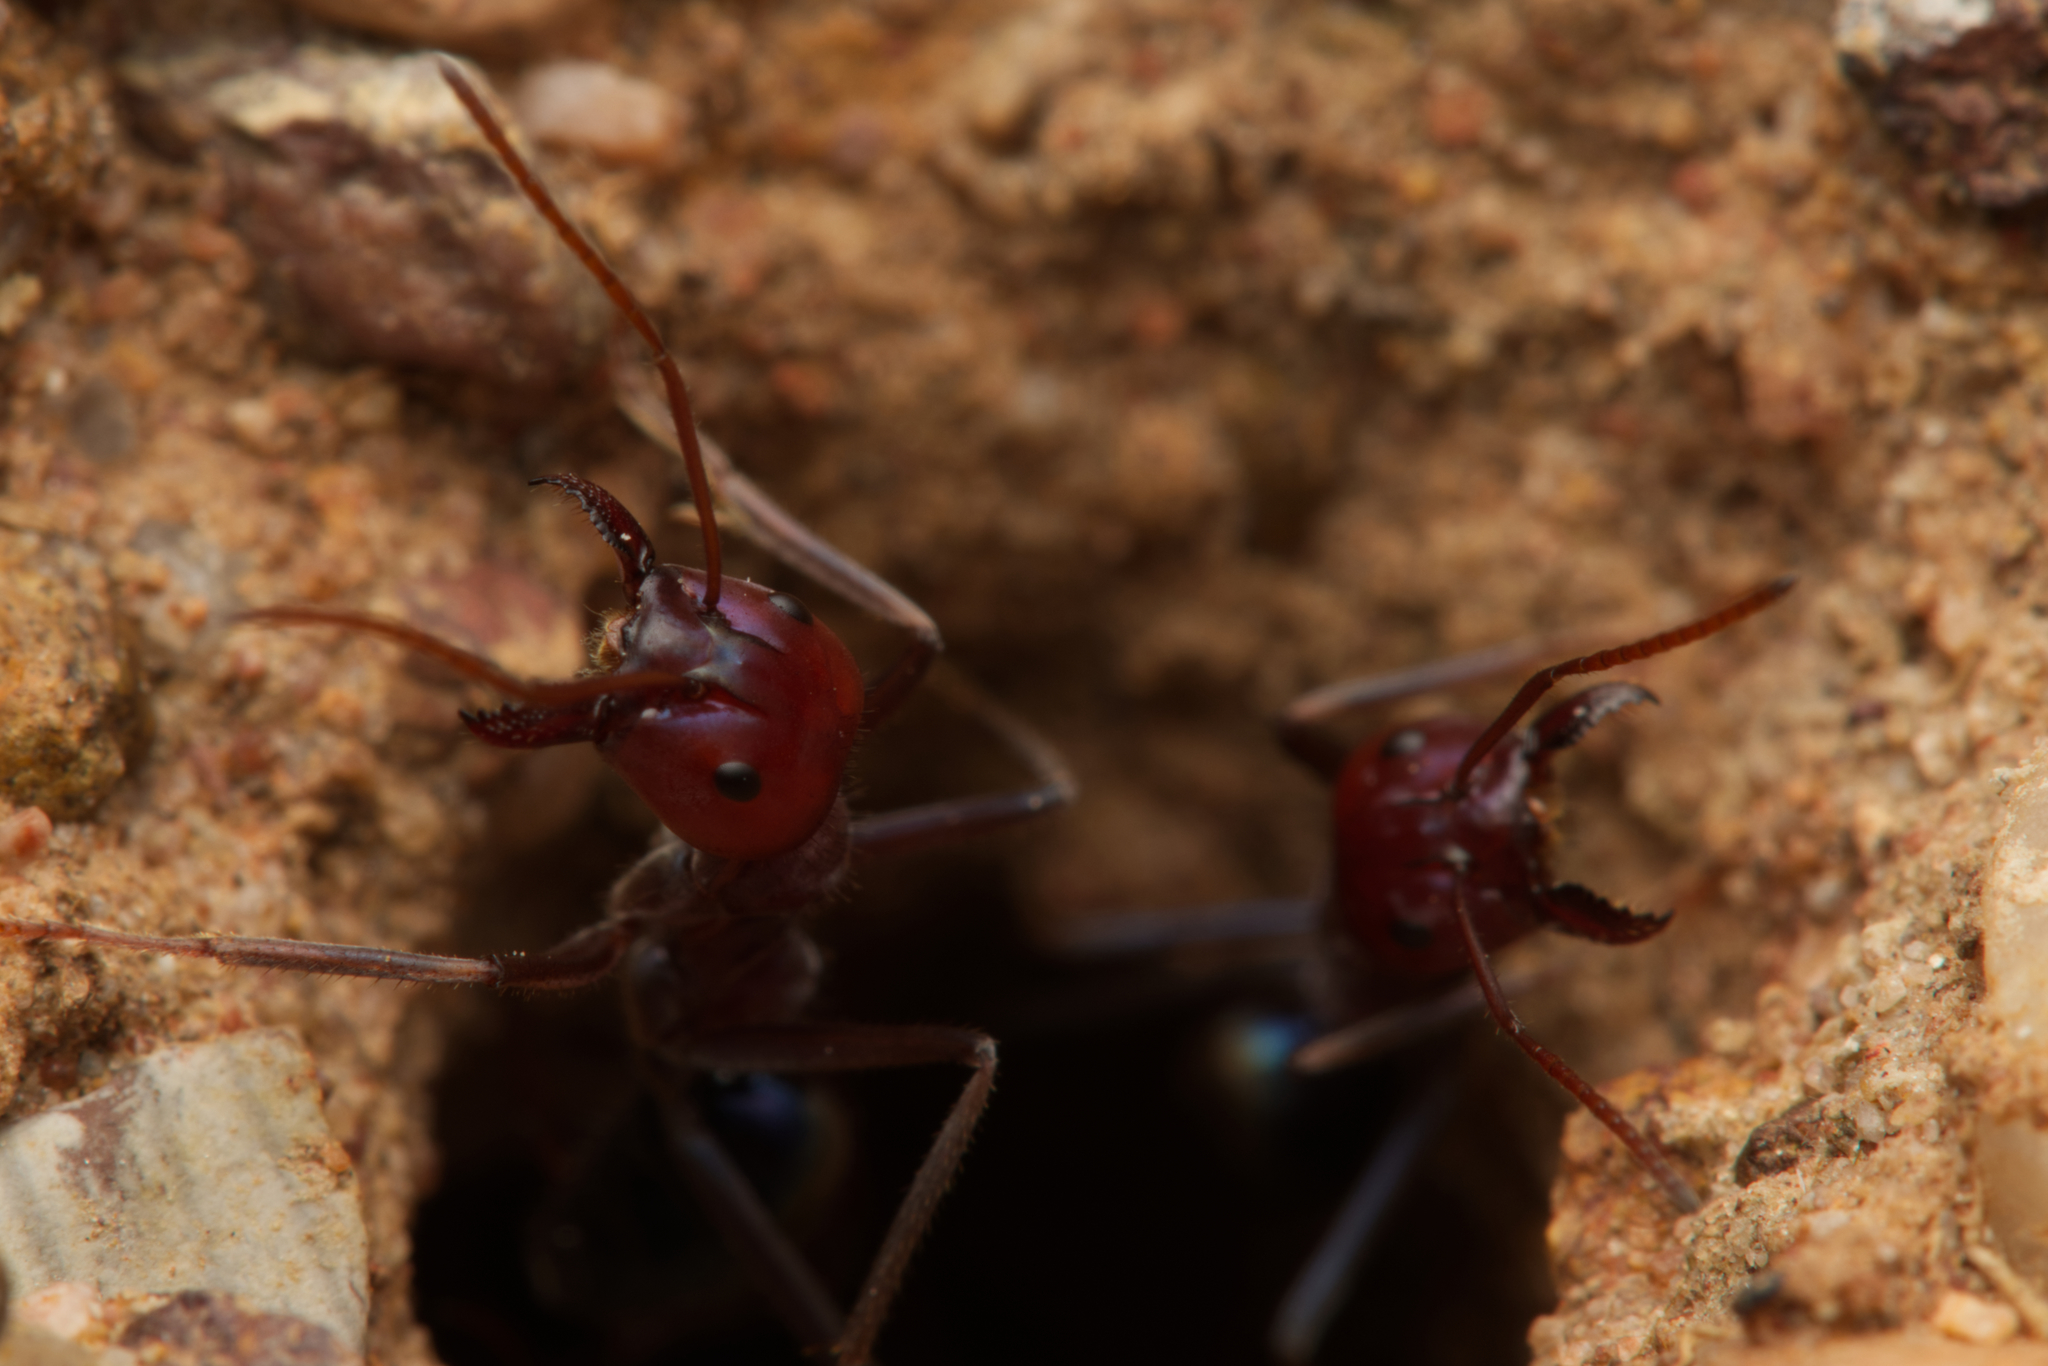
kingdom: Animalia
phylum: Arthropoda
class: Insecta
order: Hymenoptera
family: Formicidae
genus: Iridomyrmex
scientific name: Iridomyrmex purpureus
